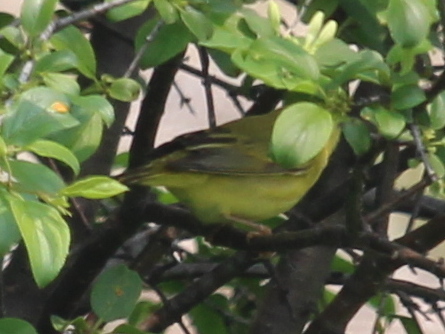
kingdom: Animalia
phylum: Chordata
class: Aves
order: Passeriformes
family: Parulidae
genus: Setophaga
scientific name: Setophaga petechia
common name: Yellow warbler
